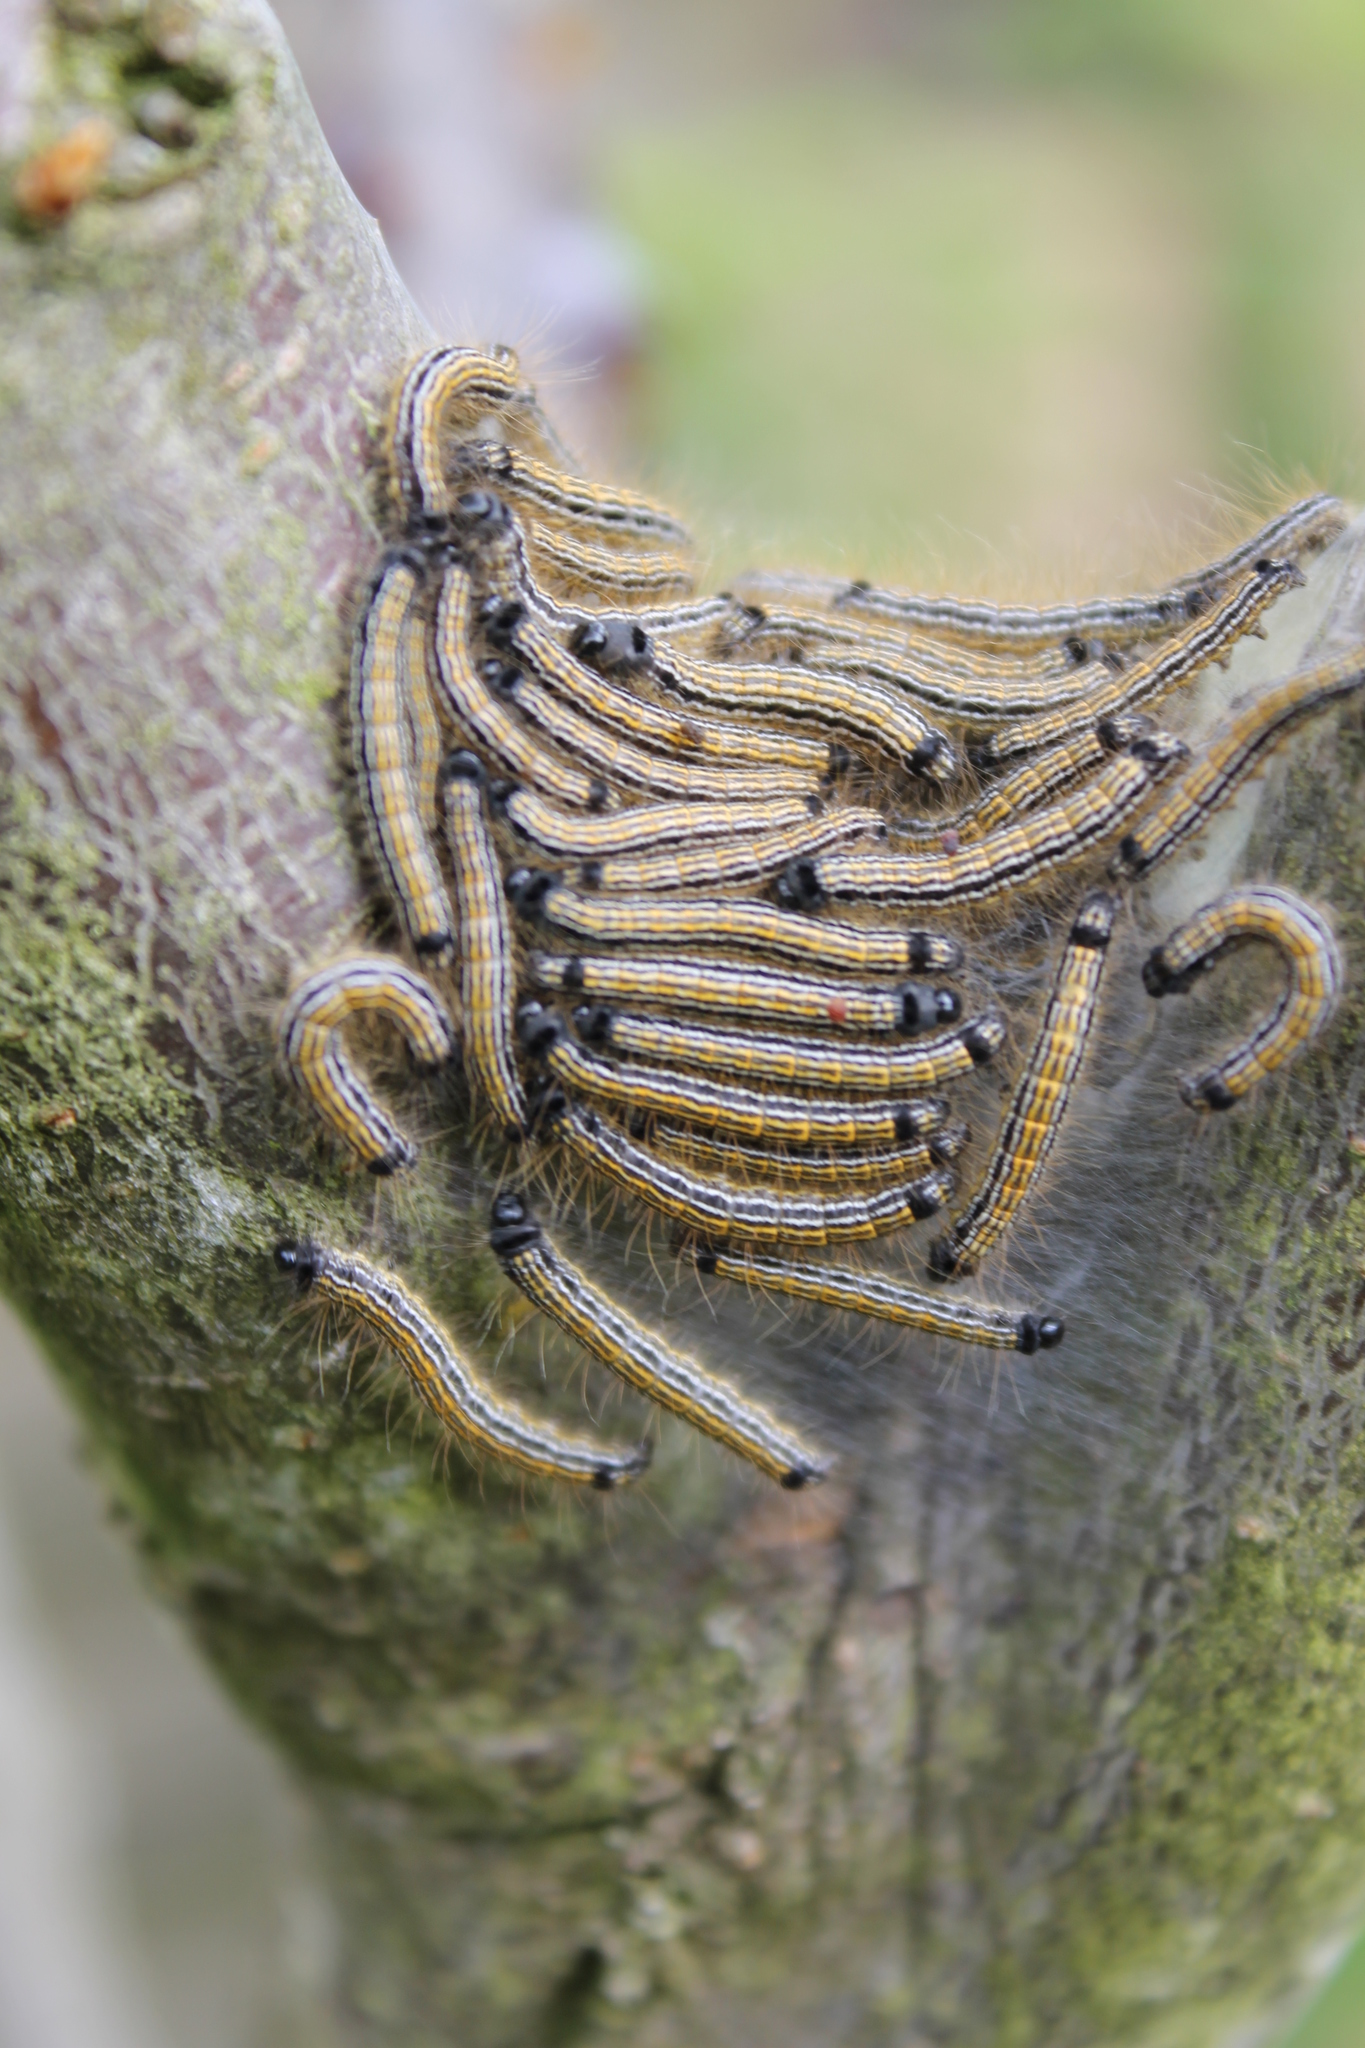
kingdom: Animalia
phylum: Arthropoda
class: Insecta
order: Lepidoptera
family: Lasiocampidae
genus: Malacosoma
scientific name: Malacosoma neustria
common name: The lackey
